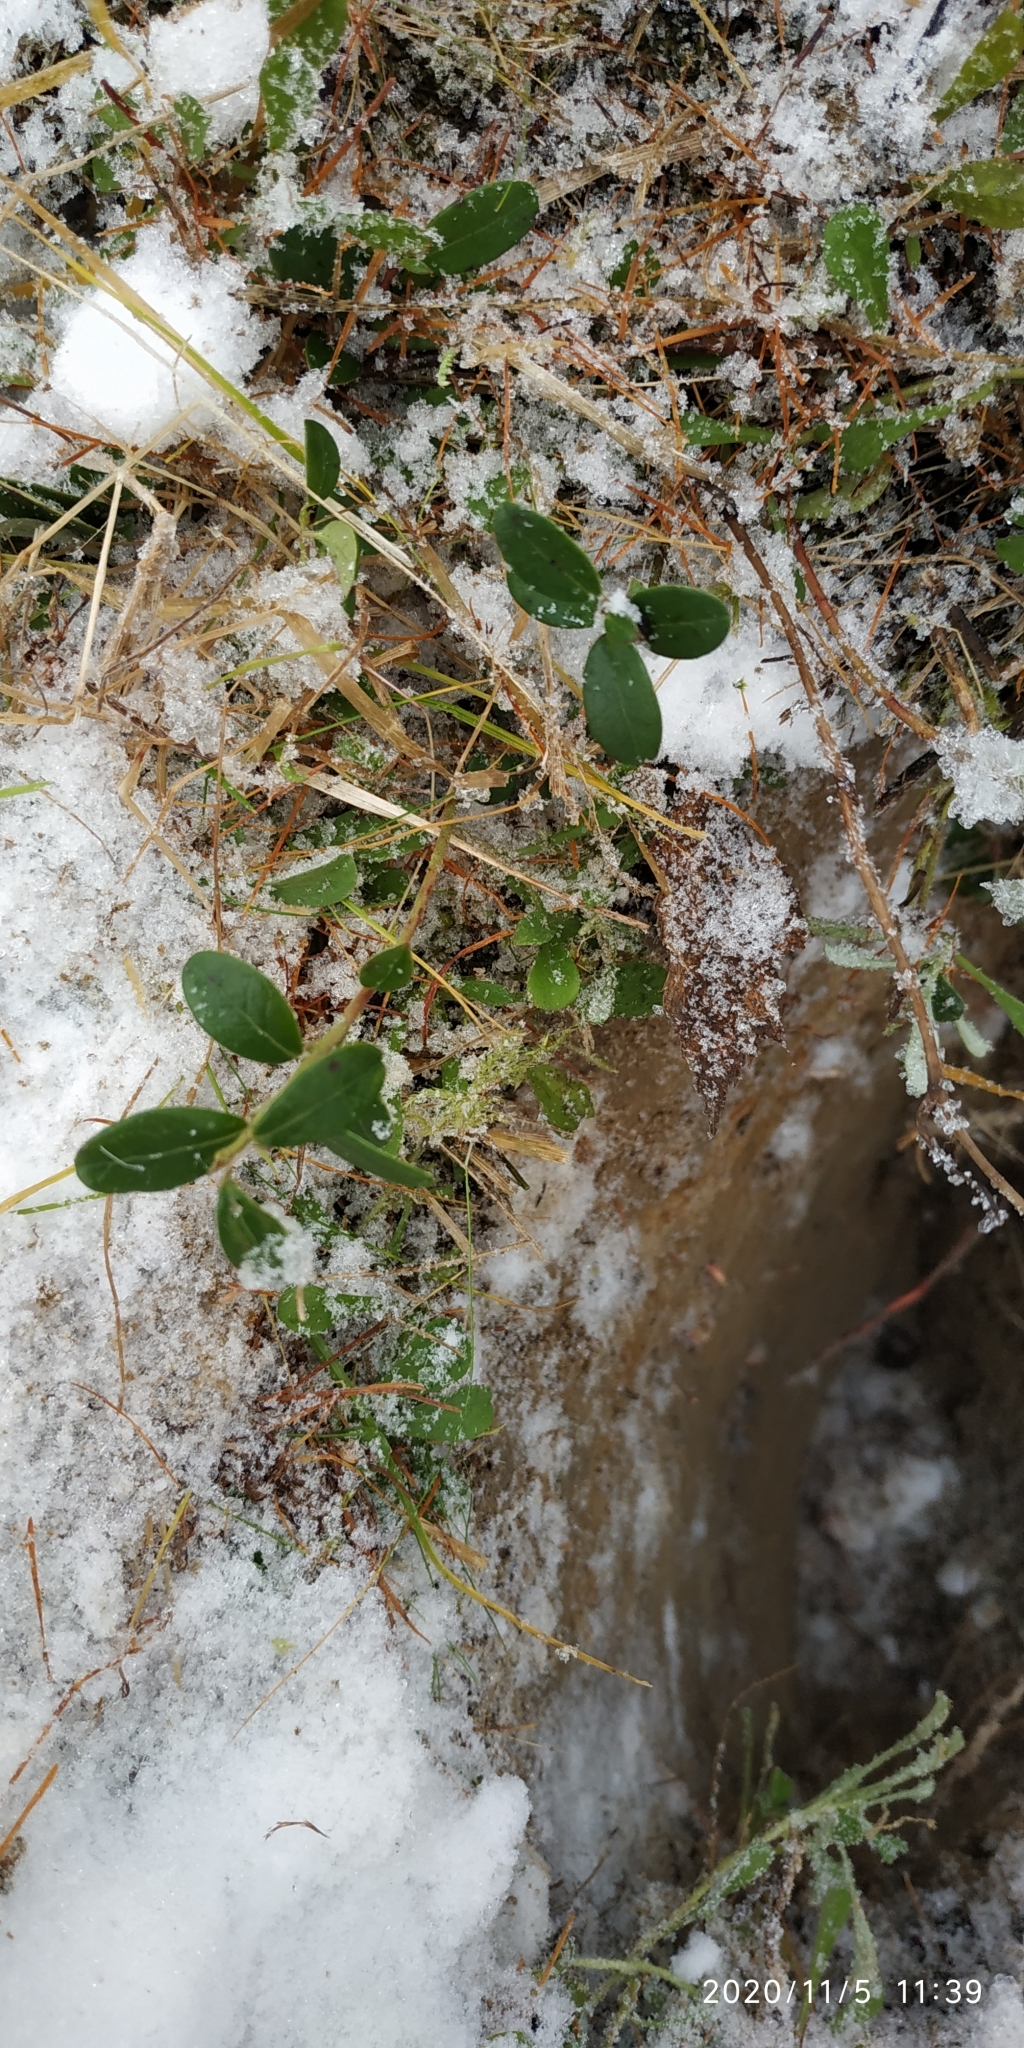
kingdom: Plantae
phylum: Tracheophyta
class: Magnoliopsida
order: Ericales
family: Ericaceae
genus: Vaccinium
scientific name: Vaccinium vitis-idaea
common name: Cowberry
